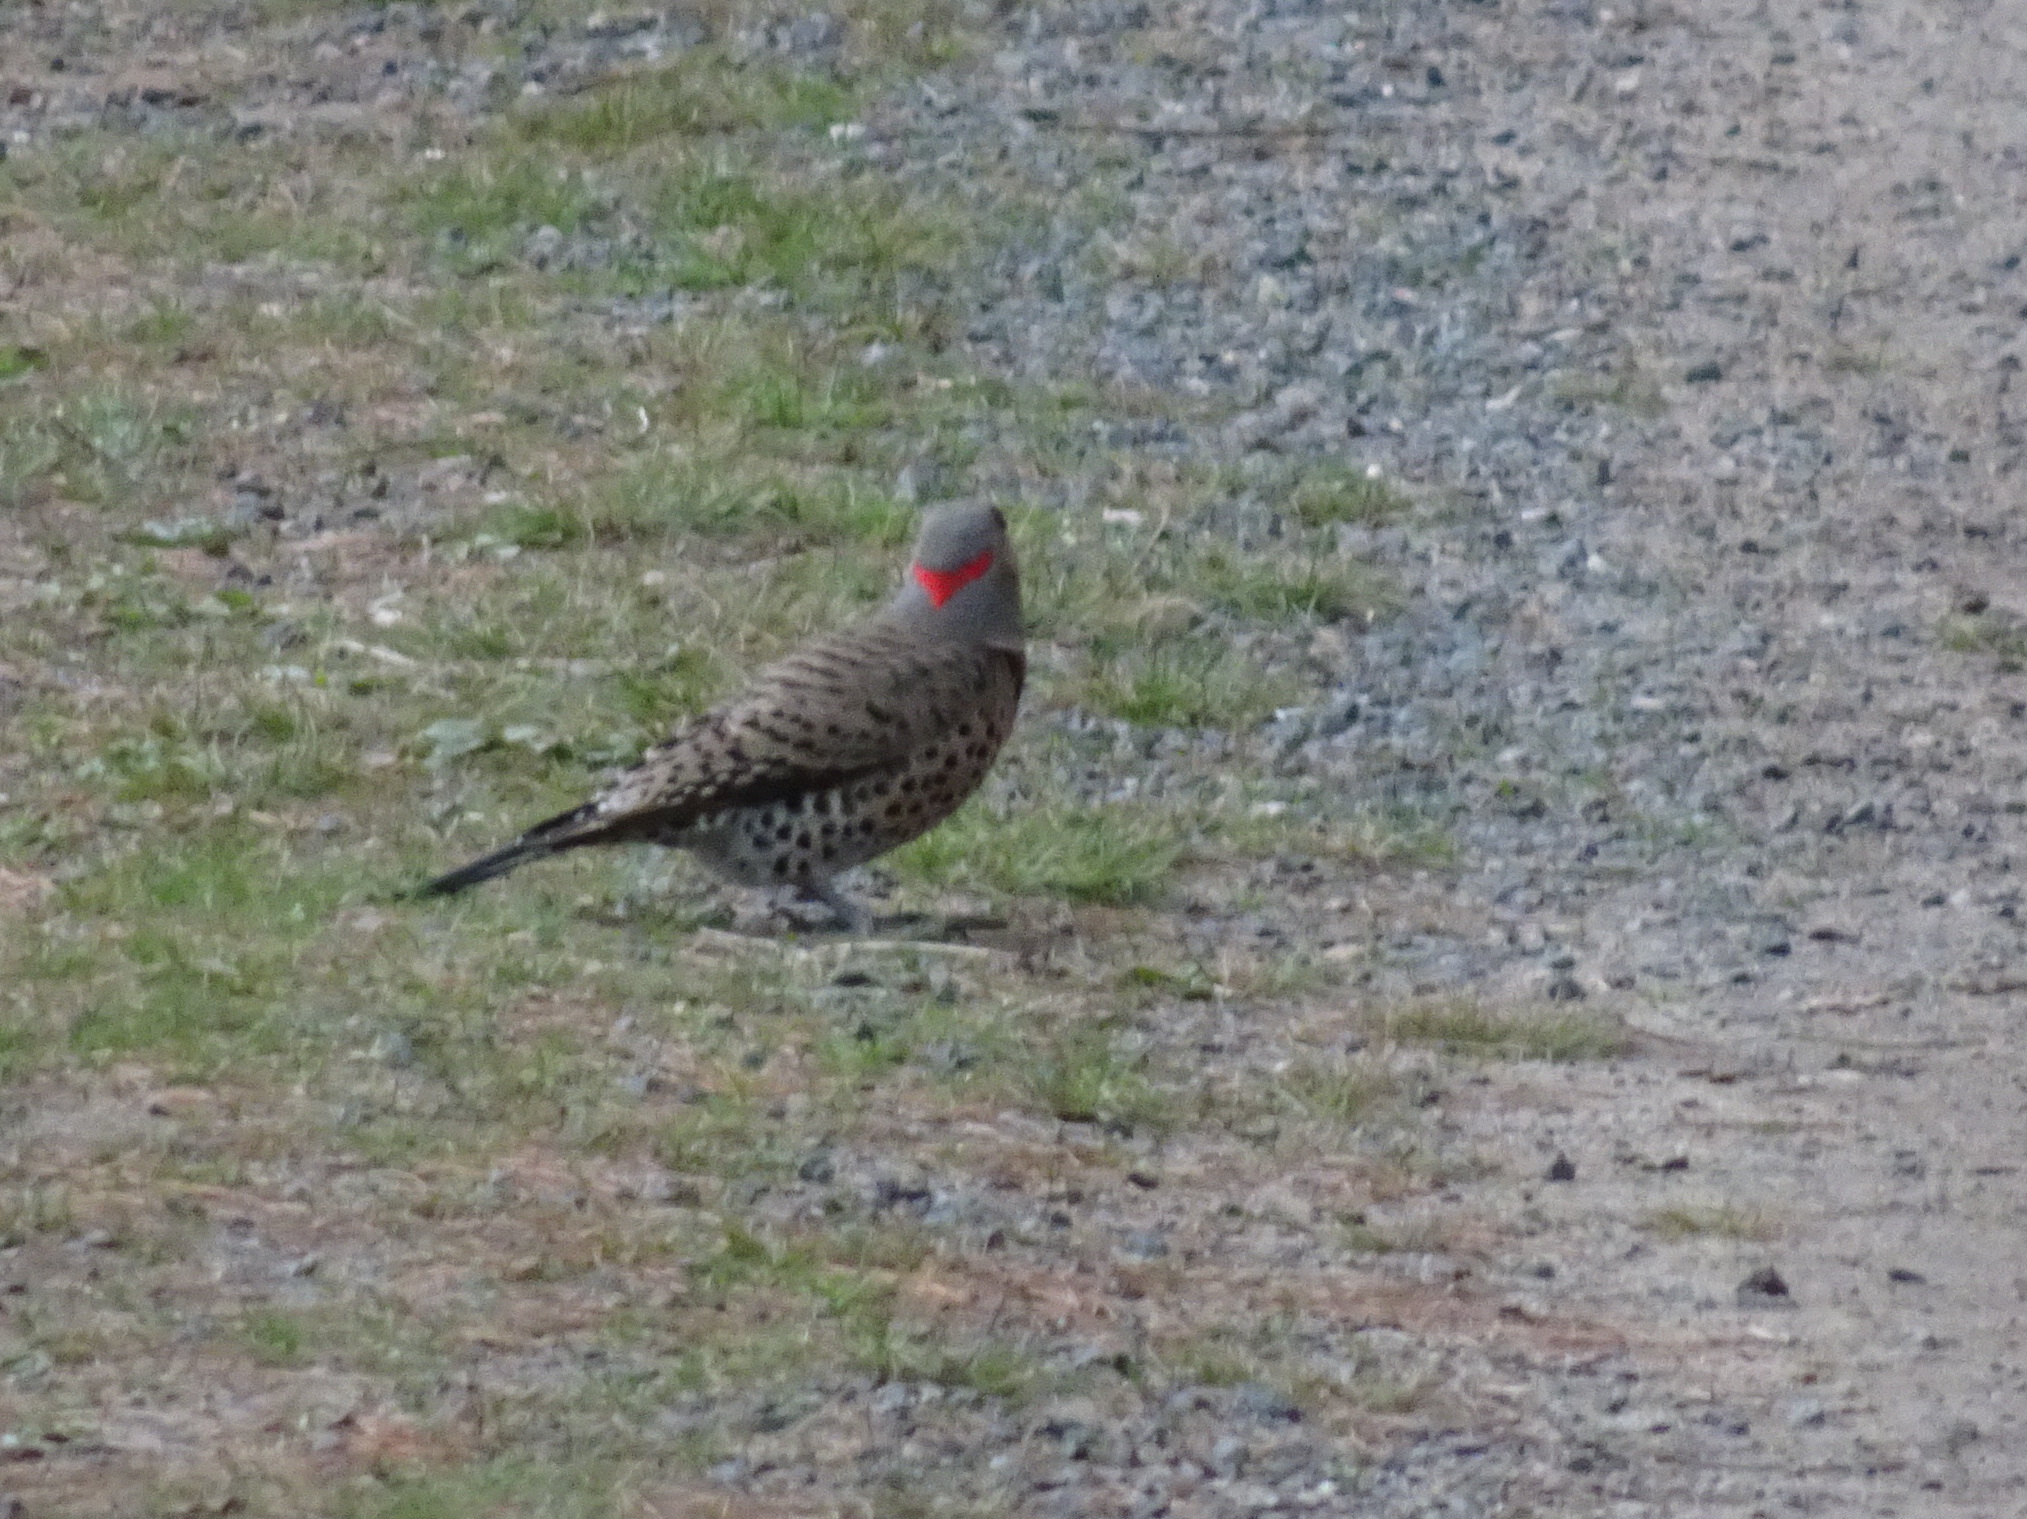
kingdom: Animalia
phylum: Chordata
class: Aves
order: Piciformes
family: Picidae
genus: Colaptes
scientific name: Colaptes auratus
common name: Northern flicker
